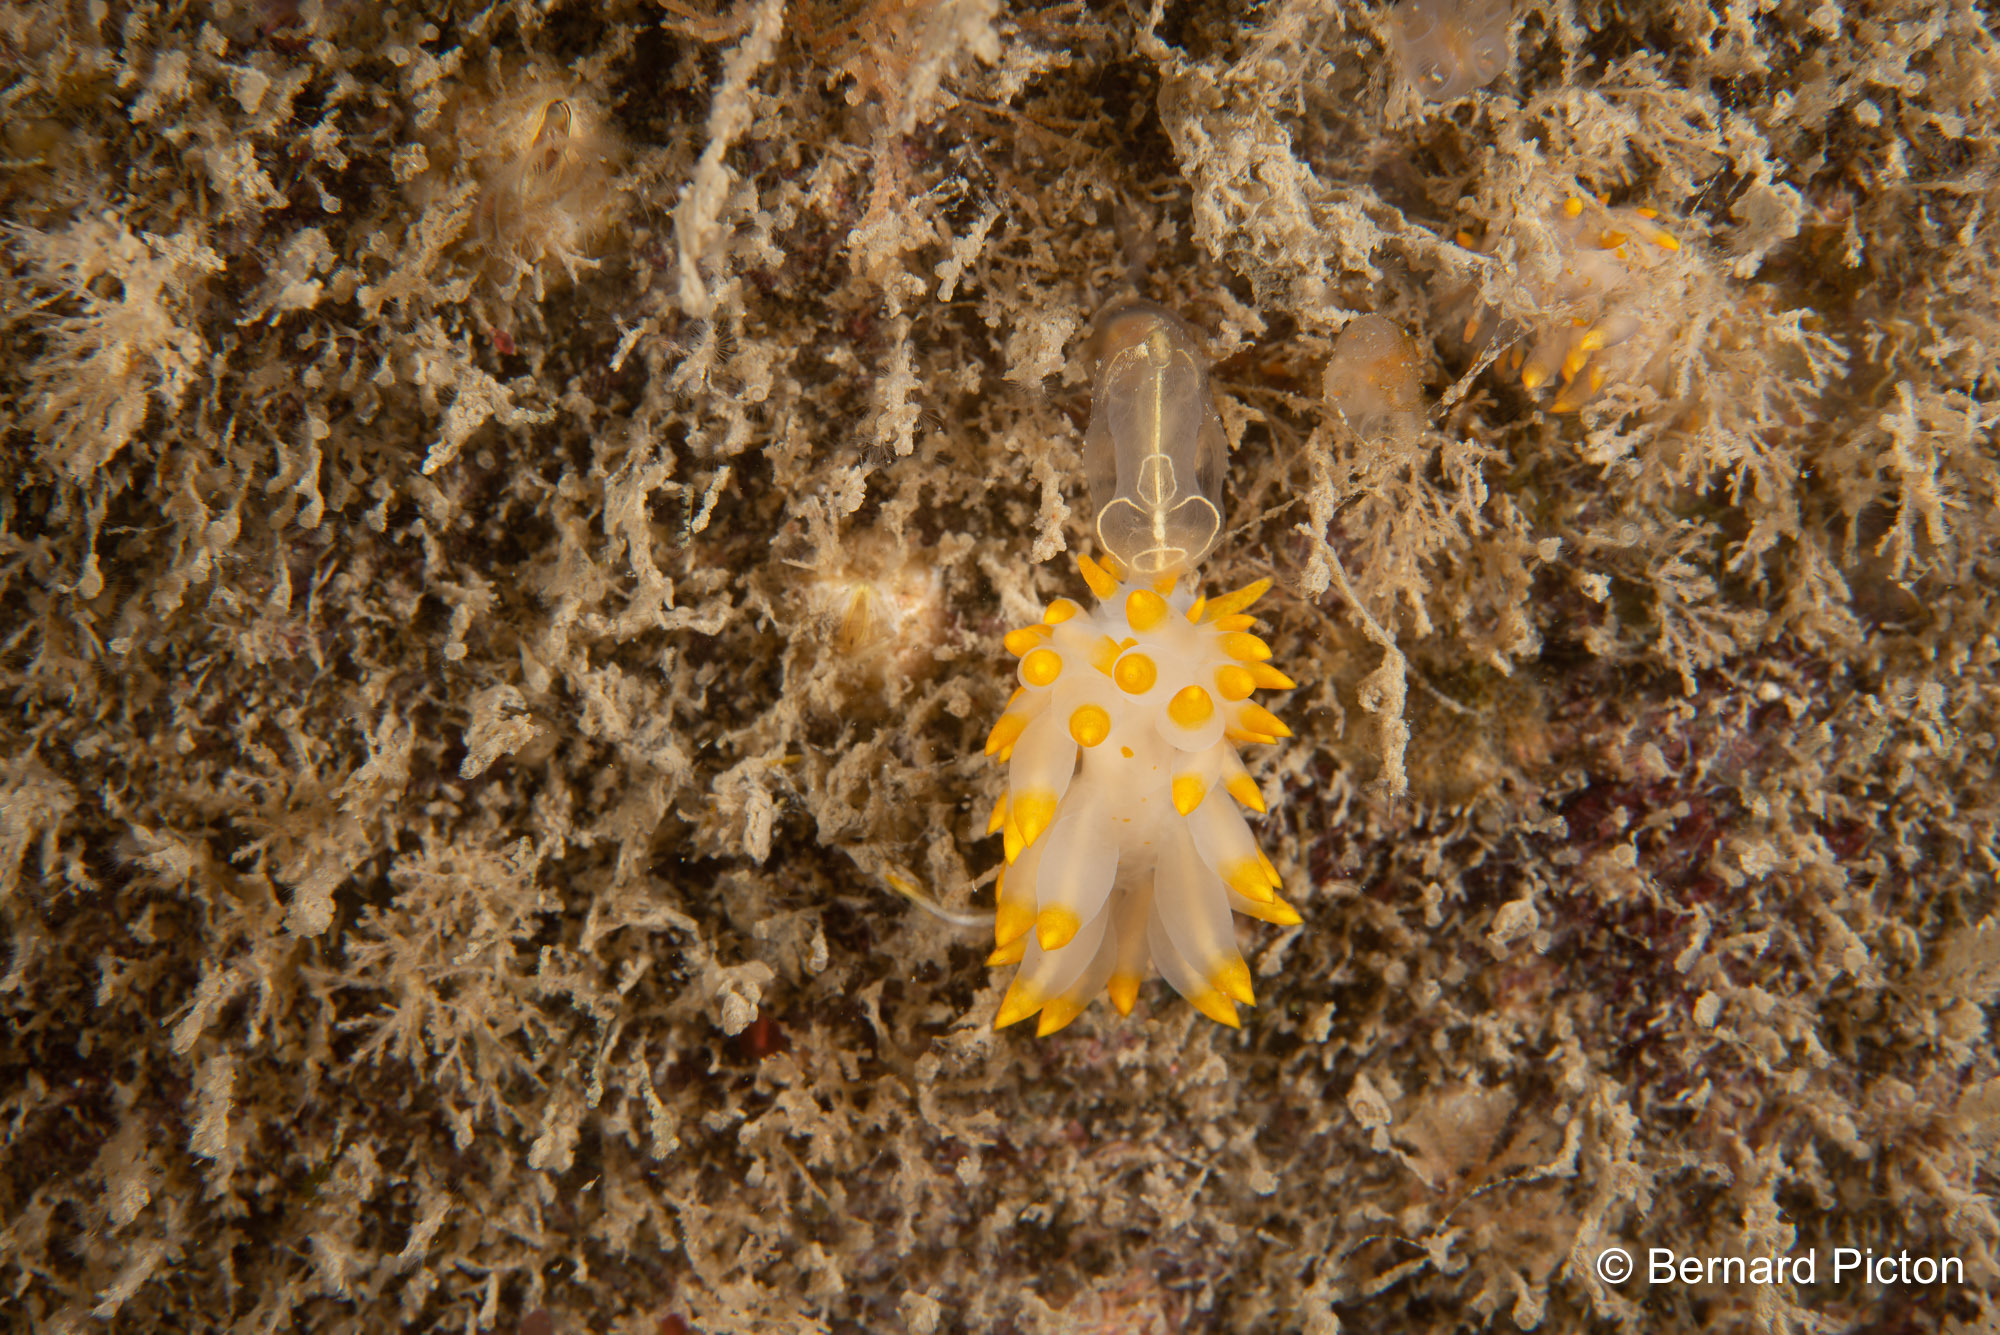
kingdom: Animalia
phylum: Mollusca
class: Gastropoda
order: Nudibranchia
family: Eubranchidae
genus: Amphorina
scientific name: Amphorina farrani
